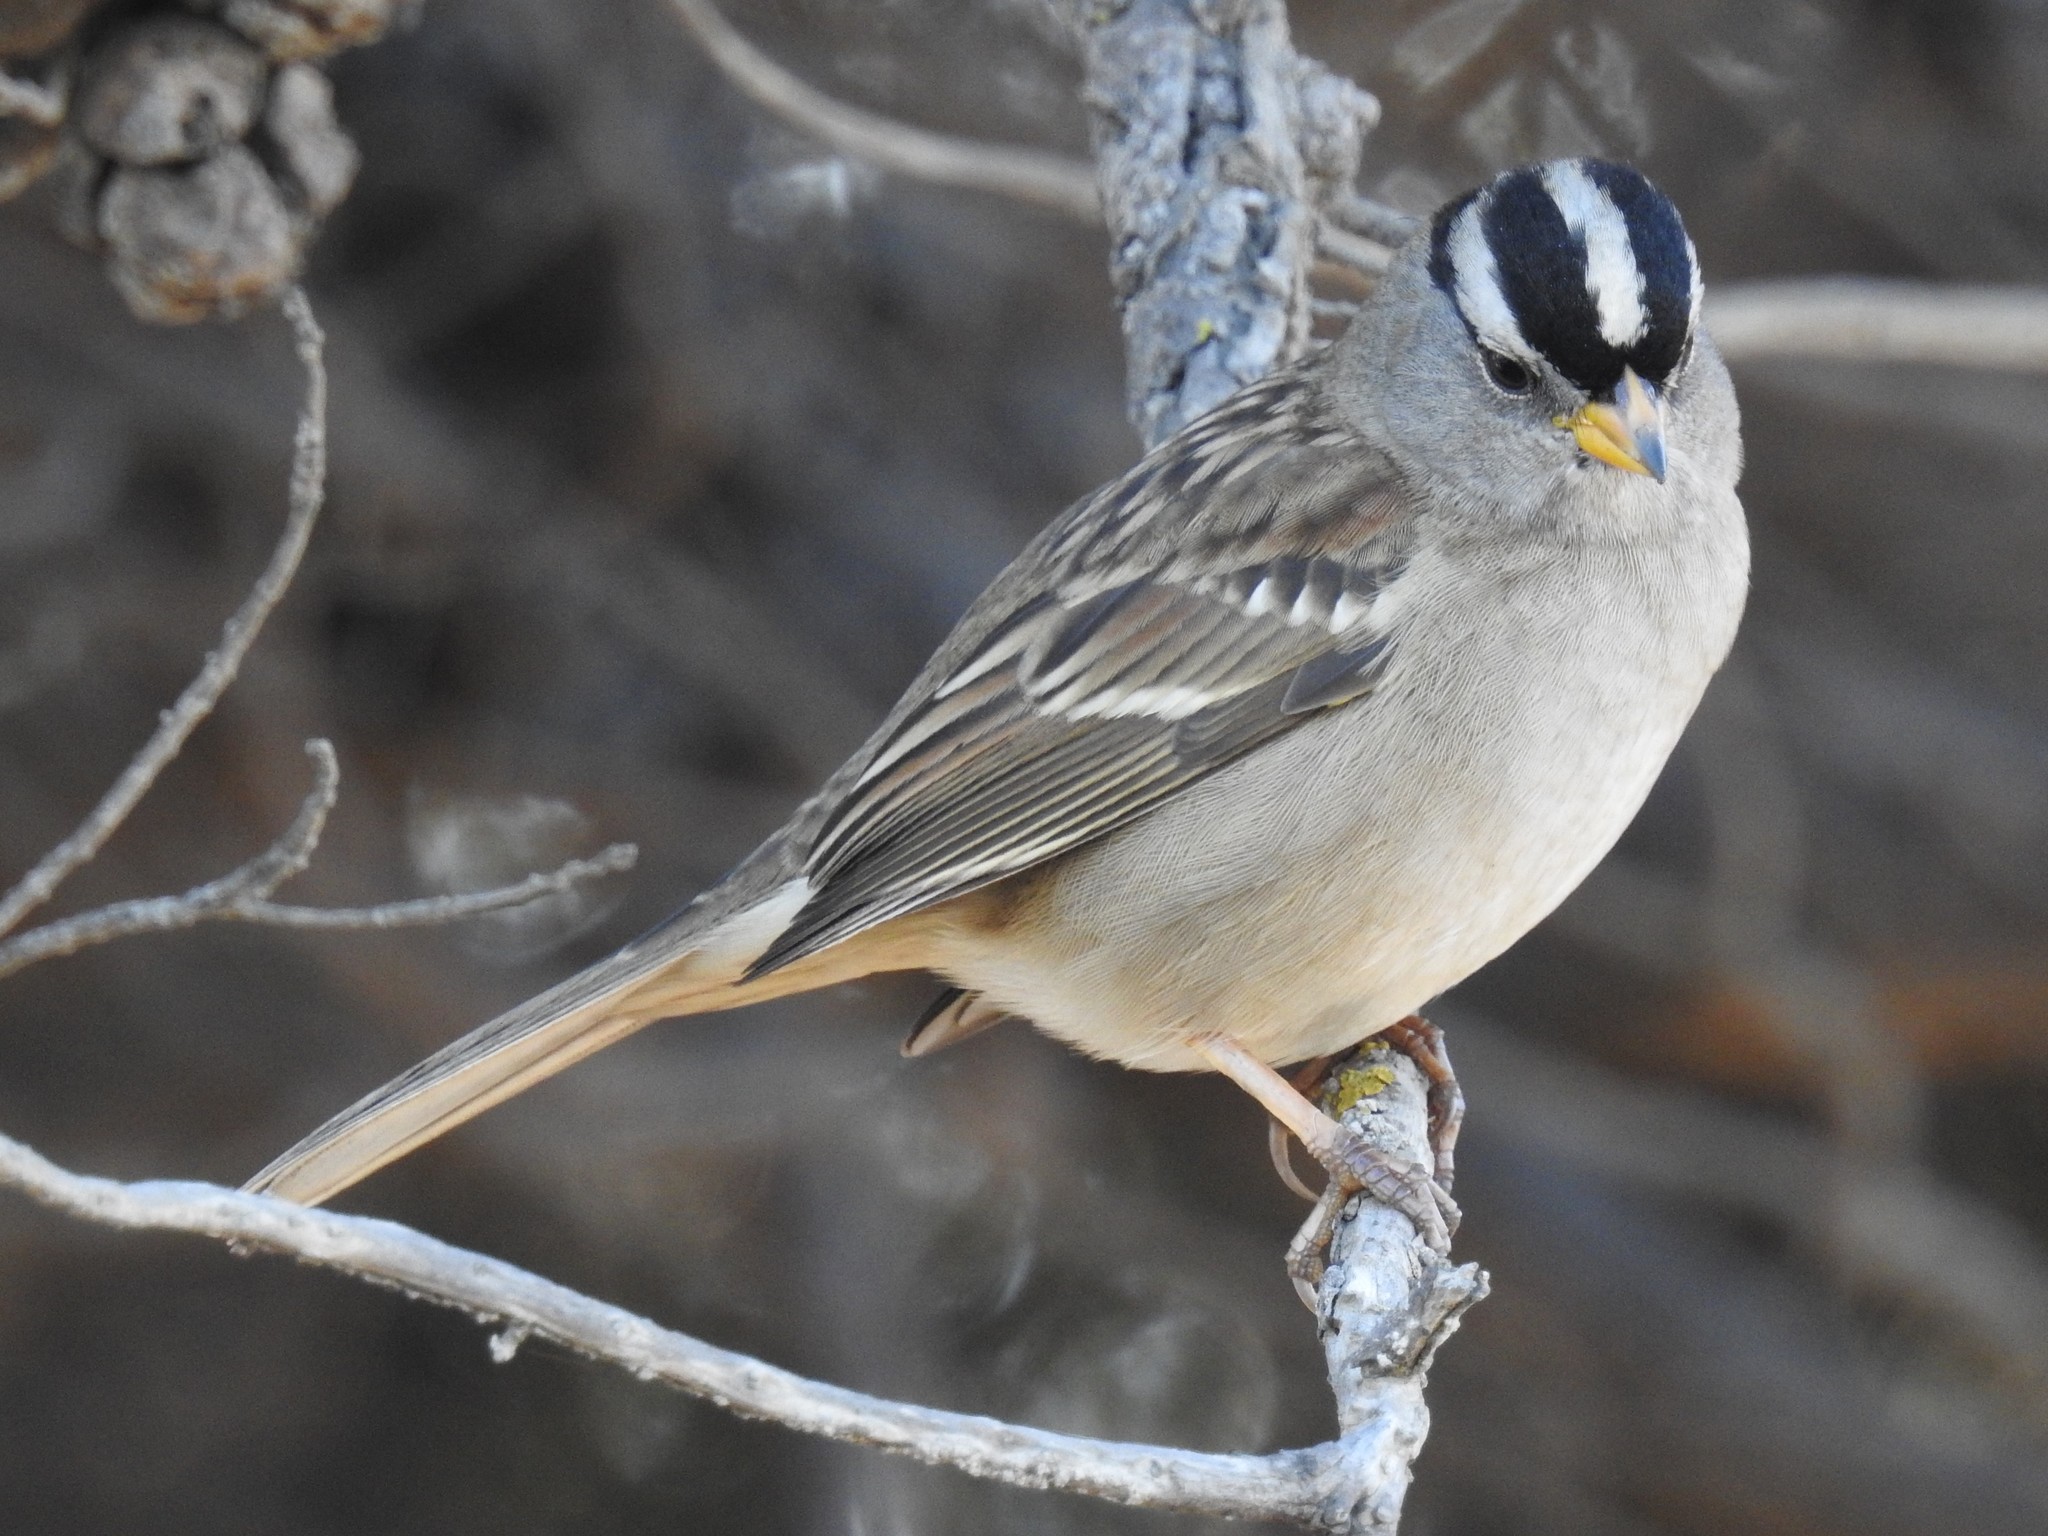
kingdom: Animalia
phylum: Chordata
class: Aves
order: Passeriformes
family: Passerellidae
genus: Zonotrichia
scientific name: Zonotrichia leucophrys
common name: White-crowned sparrow
